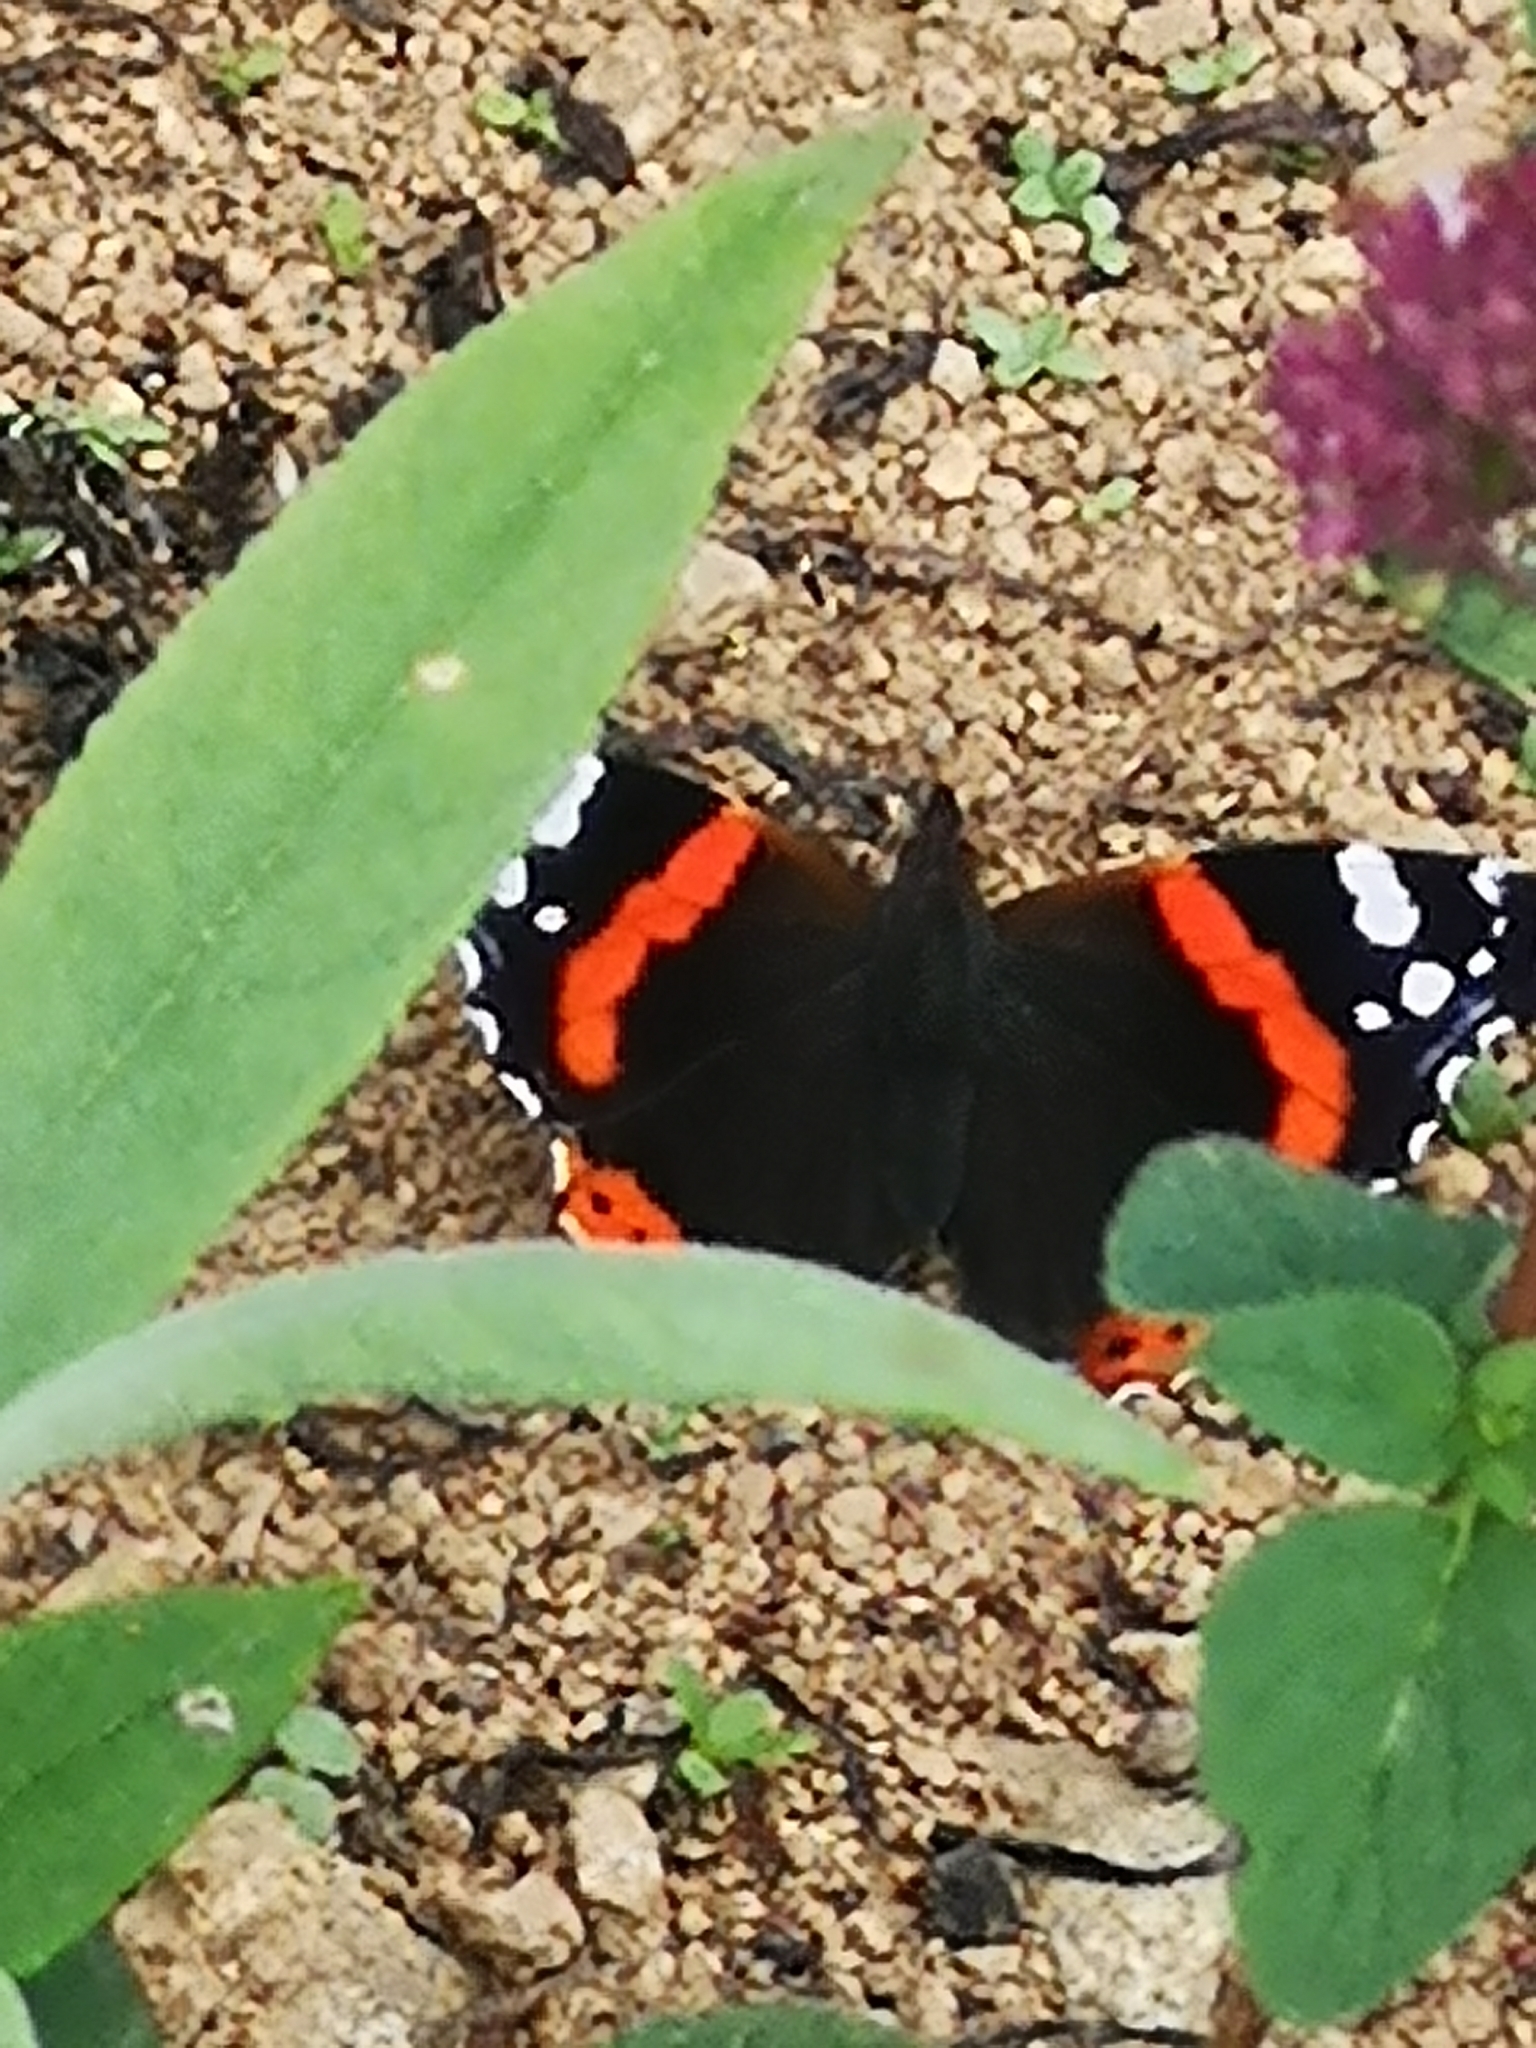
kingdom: Animalia
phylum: Arthropoda
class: Insecta
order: Lepidoptera
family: Nymphalidae
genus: Vanessa
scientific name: Vanessa atalanta
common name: Red admiral
